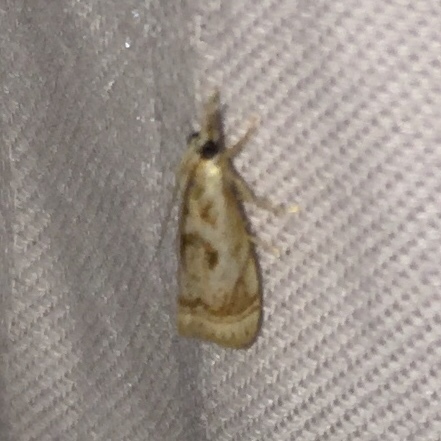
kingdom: Animalia
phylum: Arthropoda
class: Insecta
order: Lepidoptera
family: Crambidae
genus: Microcrambus
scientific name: Microcrambus elegans
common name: Elegant grass-veneer
